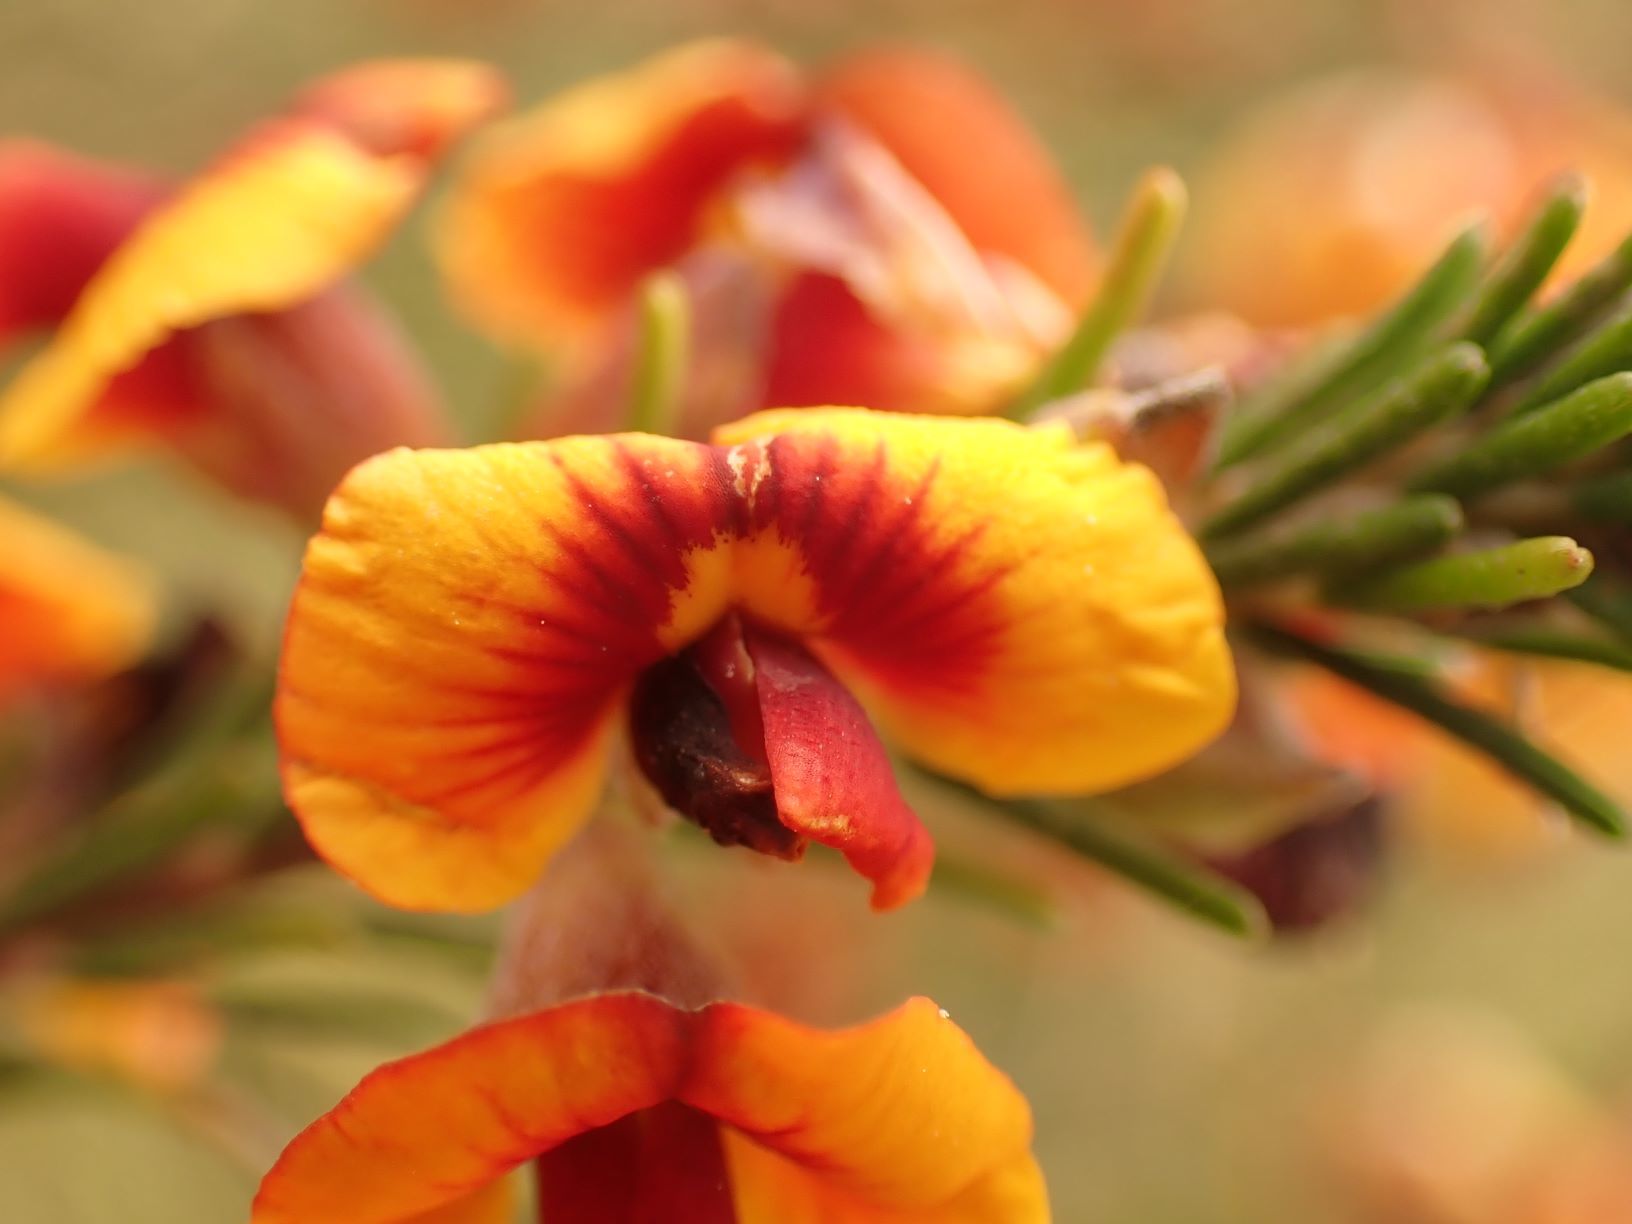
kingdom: Plantae
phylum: Tracheophyta
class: Magnoliopsida
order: Fabales
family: Fabaceae
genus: Dillwynia
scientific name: Dillwynia cinerascens
